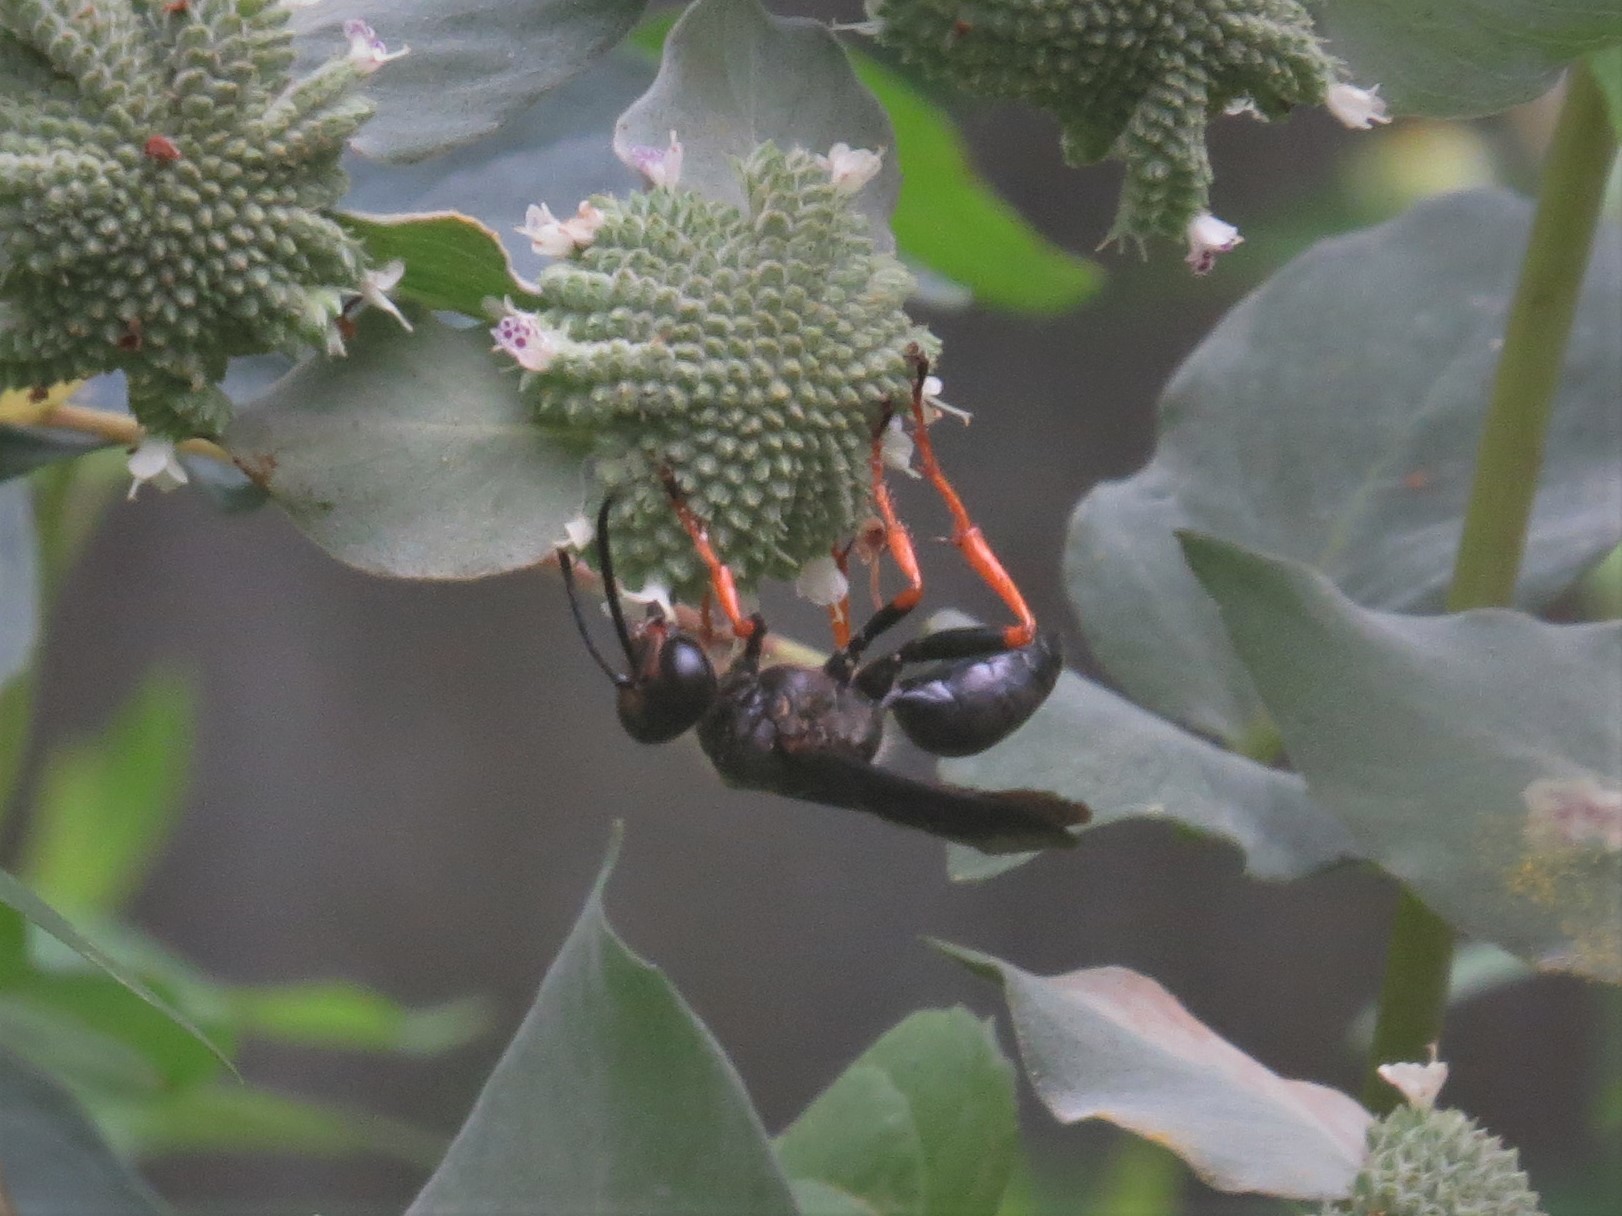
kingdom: Animalia
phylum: Arthropoda
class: Insecta
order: Hymenoptera
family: Sphecidae
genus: Sphex
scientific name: Sphex nudus
